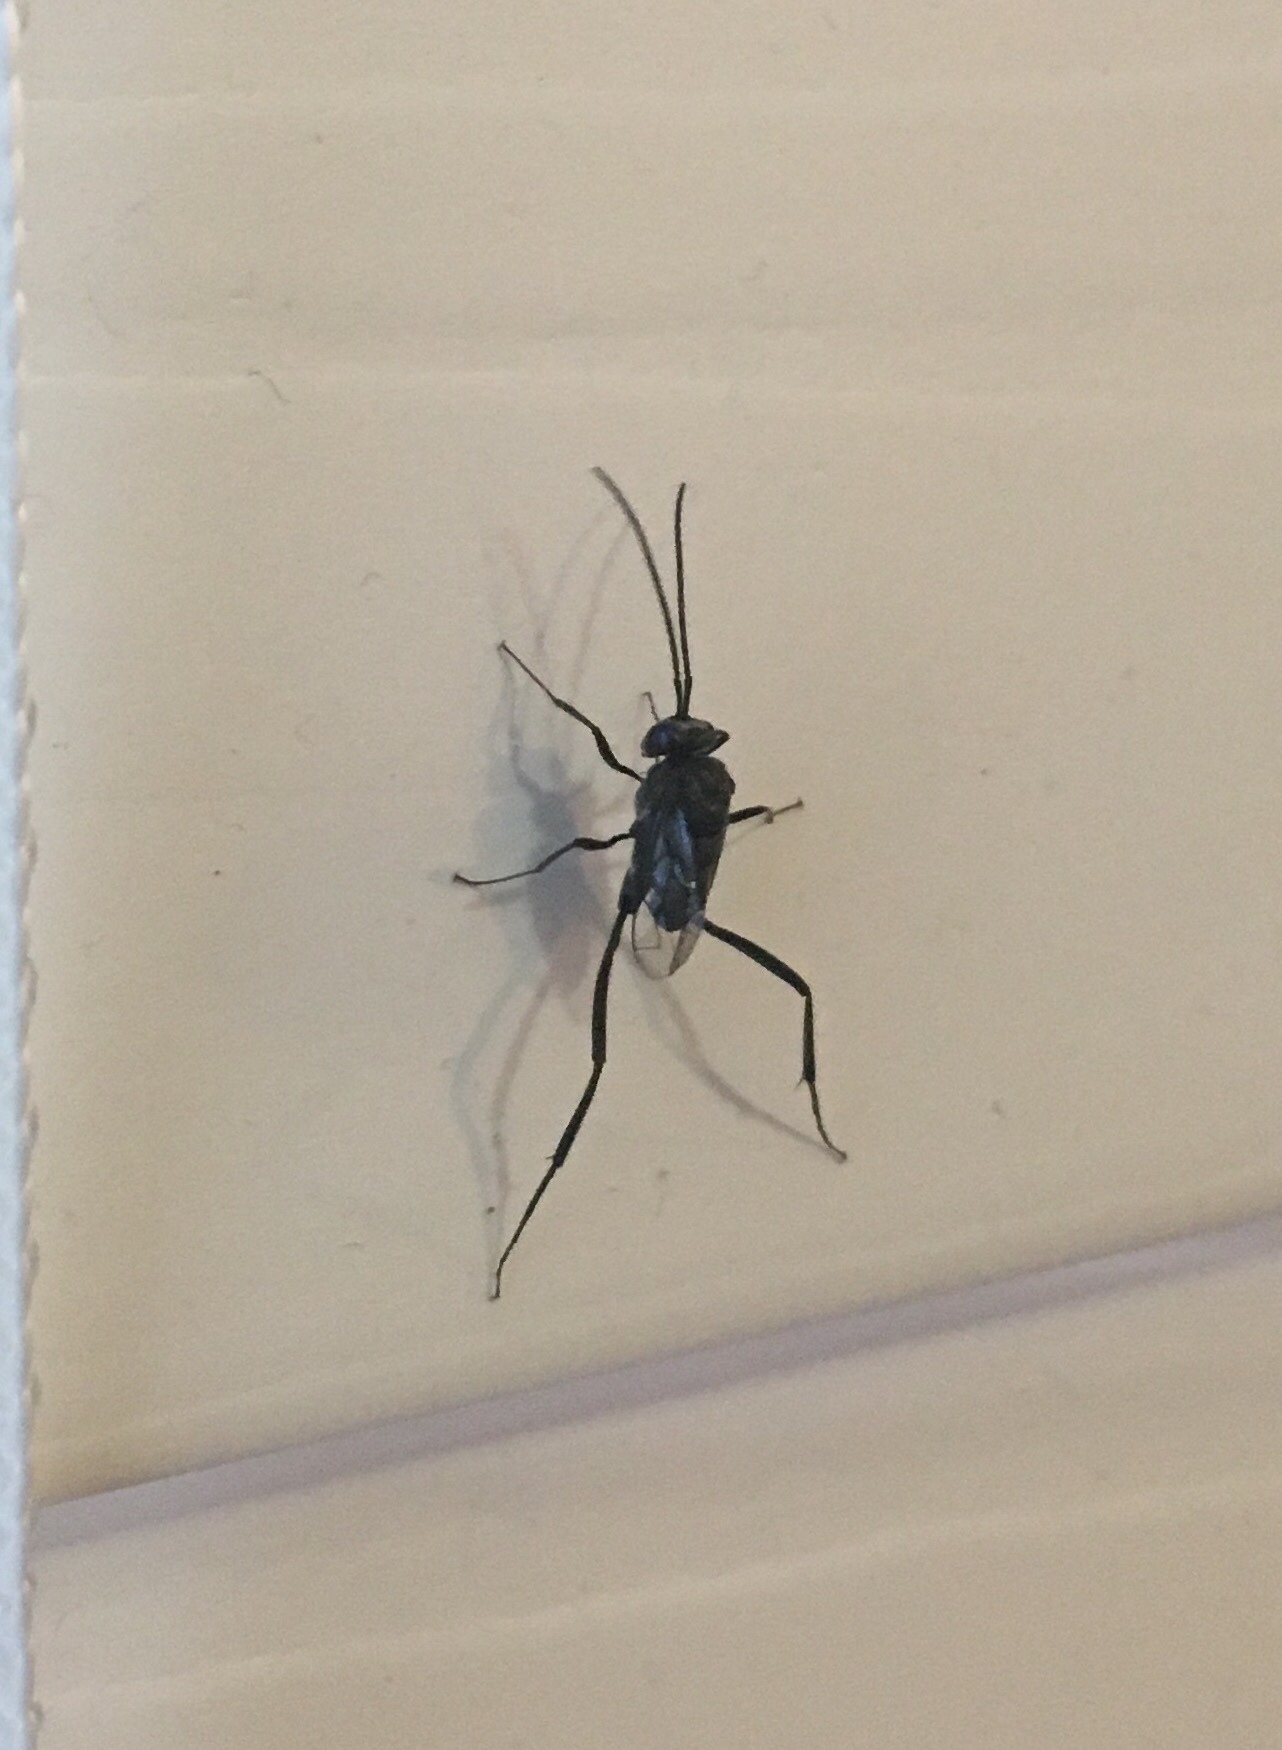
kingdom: Animalia
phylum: Arthropoda
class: Insecta
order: Hymenoptera
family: Evaniidae
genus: Evania
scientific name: Evania appendigaster
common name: Ensign wasp
